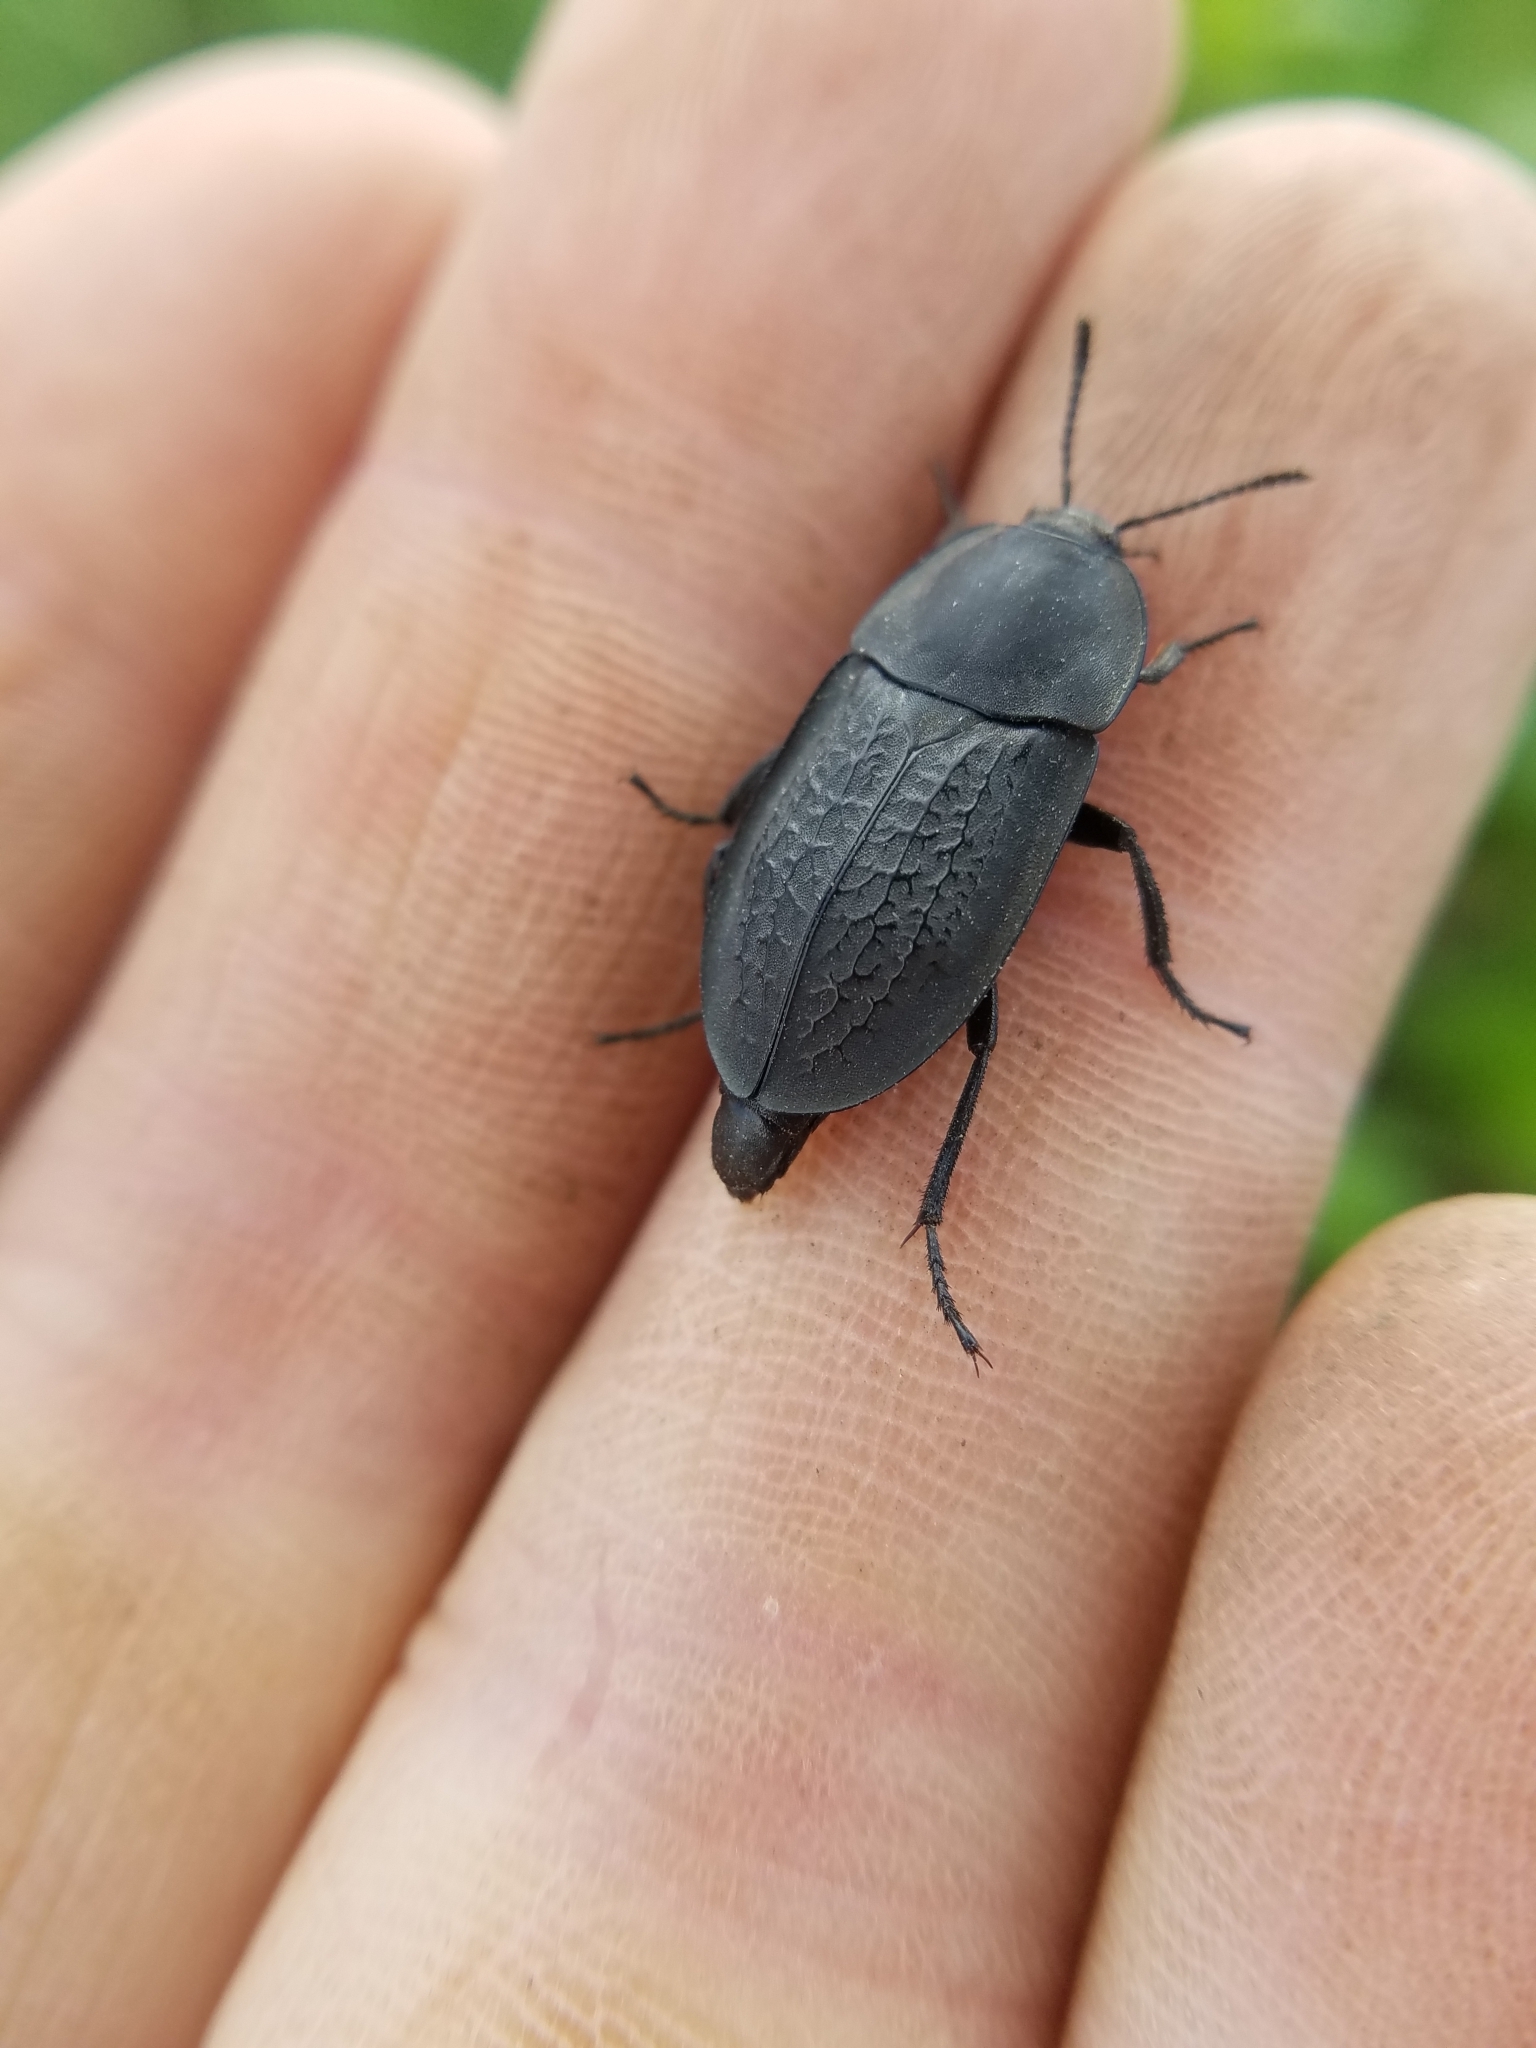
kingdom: Animalia
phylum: Arthropoda
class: Insecta
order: Coleoptera
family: Staphylinidae
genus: Heterosilpha
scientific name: Heterosilpha ramosa
